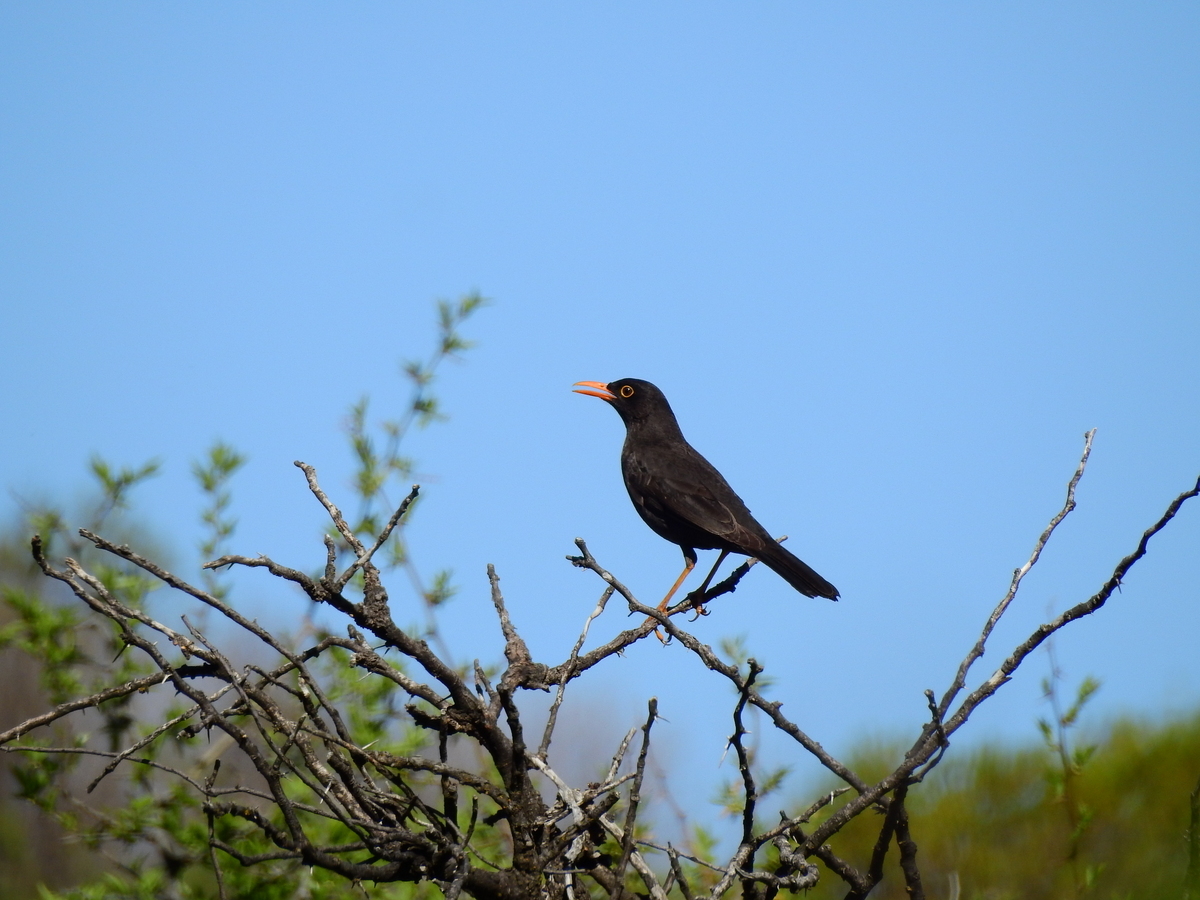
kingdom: Animalia
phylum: Chordata
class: Aves
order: Passeriformes
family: Turdidae
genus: Turdus
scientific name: Turdus chiguanco
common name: Chiguanco thrush
